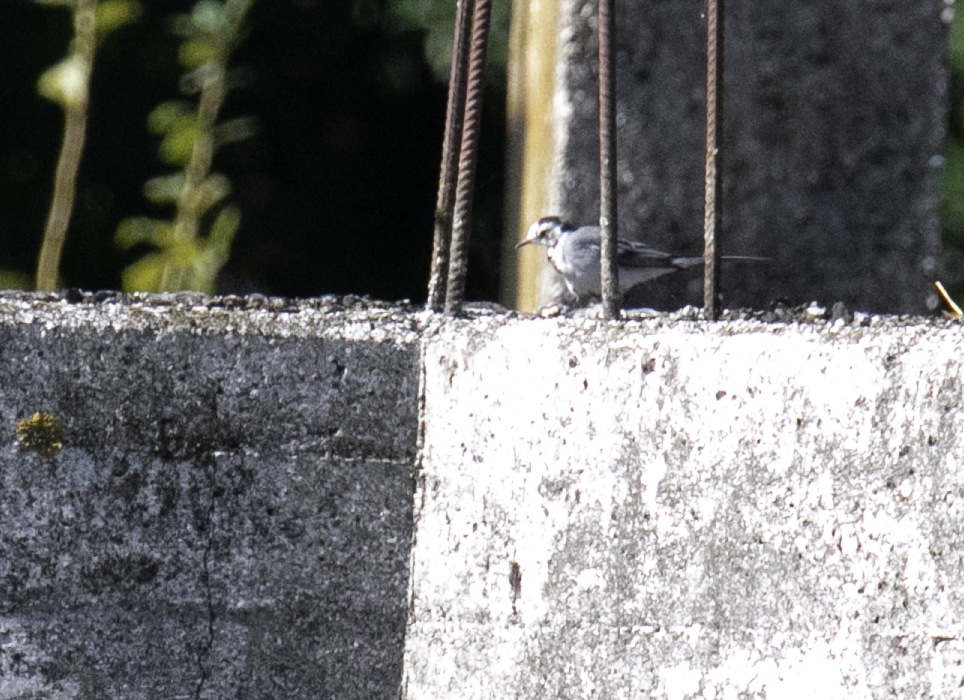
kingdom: Animalia
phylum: Chordata
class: Aves
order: Passeriformes
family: Motacillidae
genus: Motacilla
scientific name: Motacilla alba
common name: White wagtail
